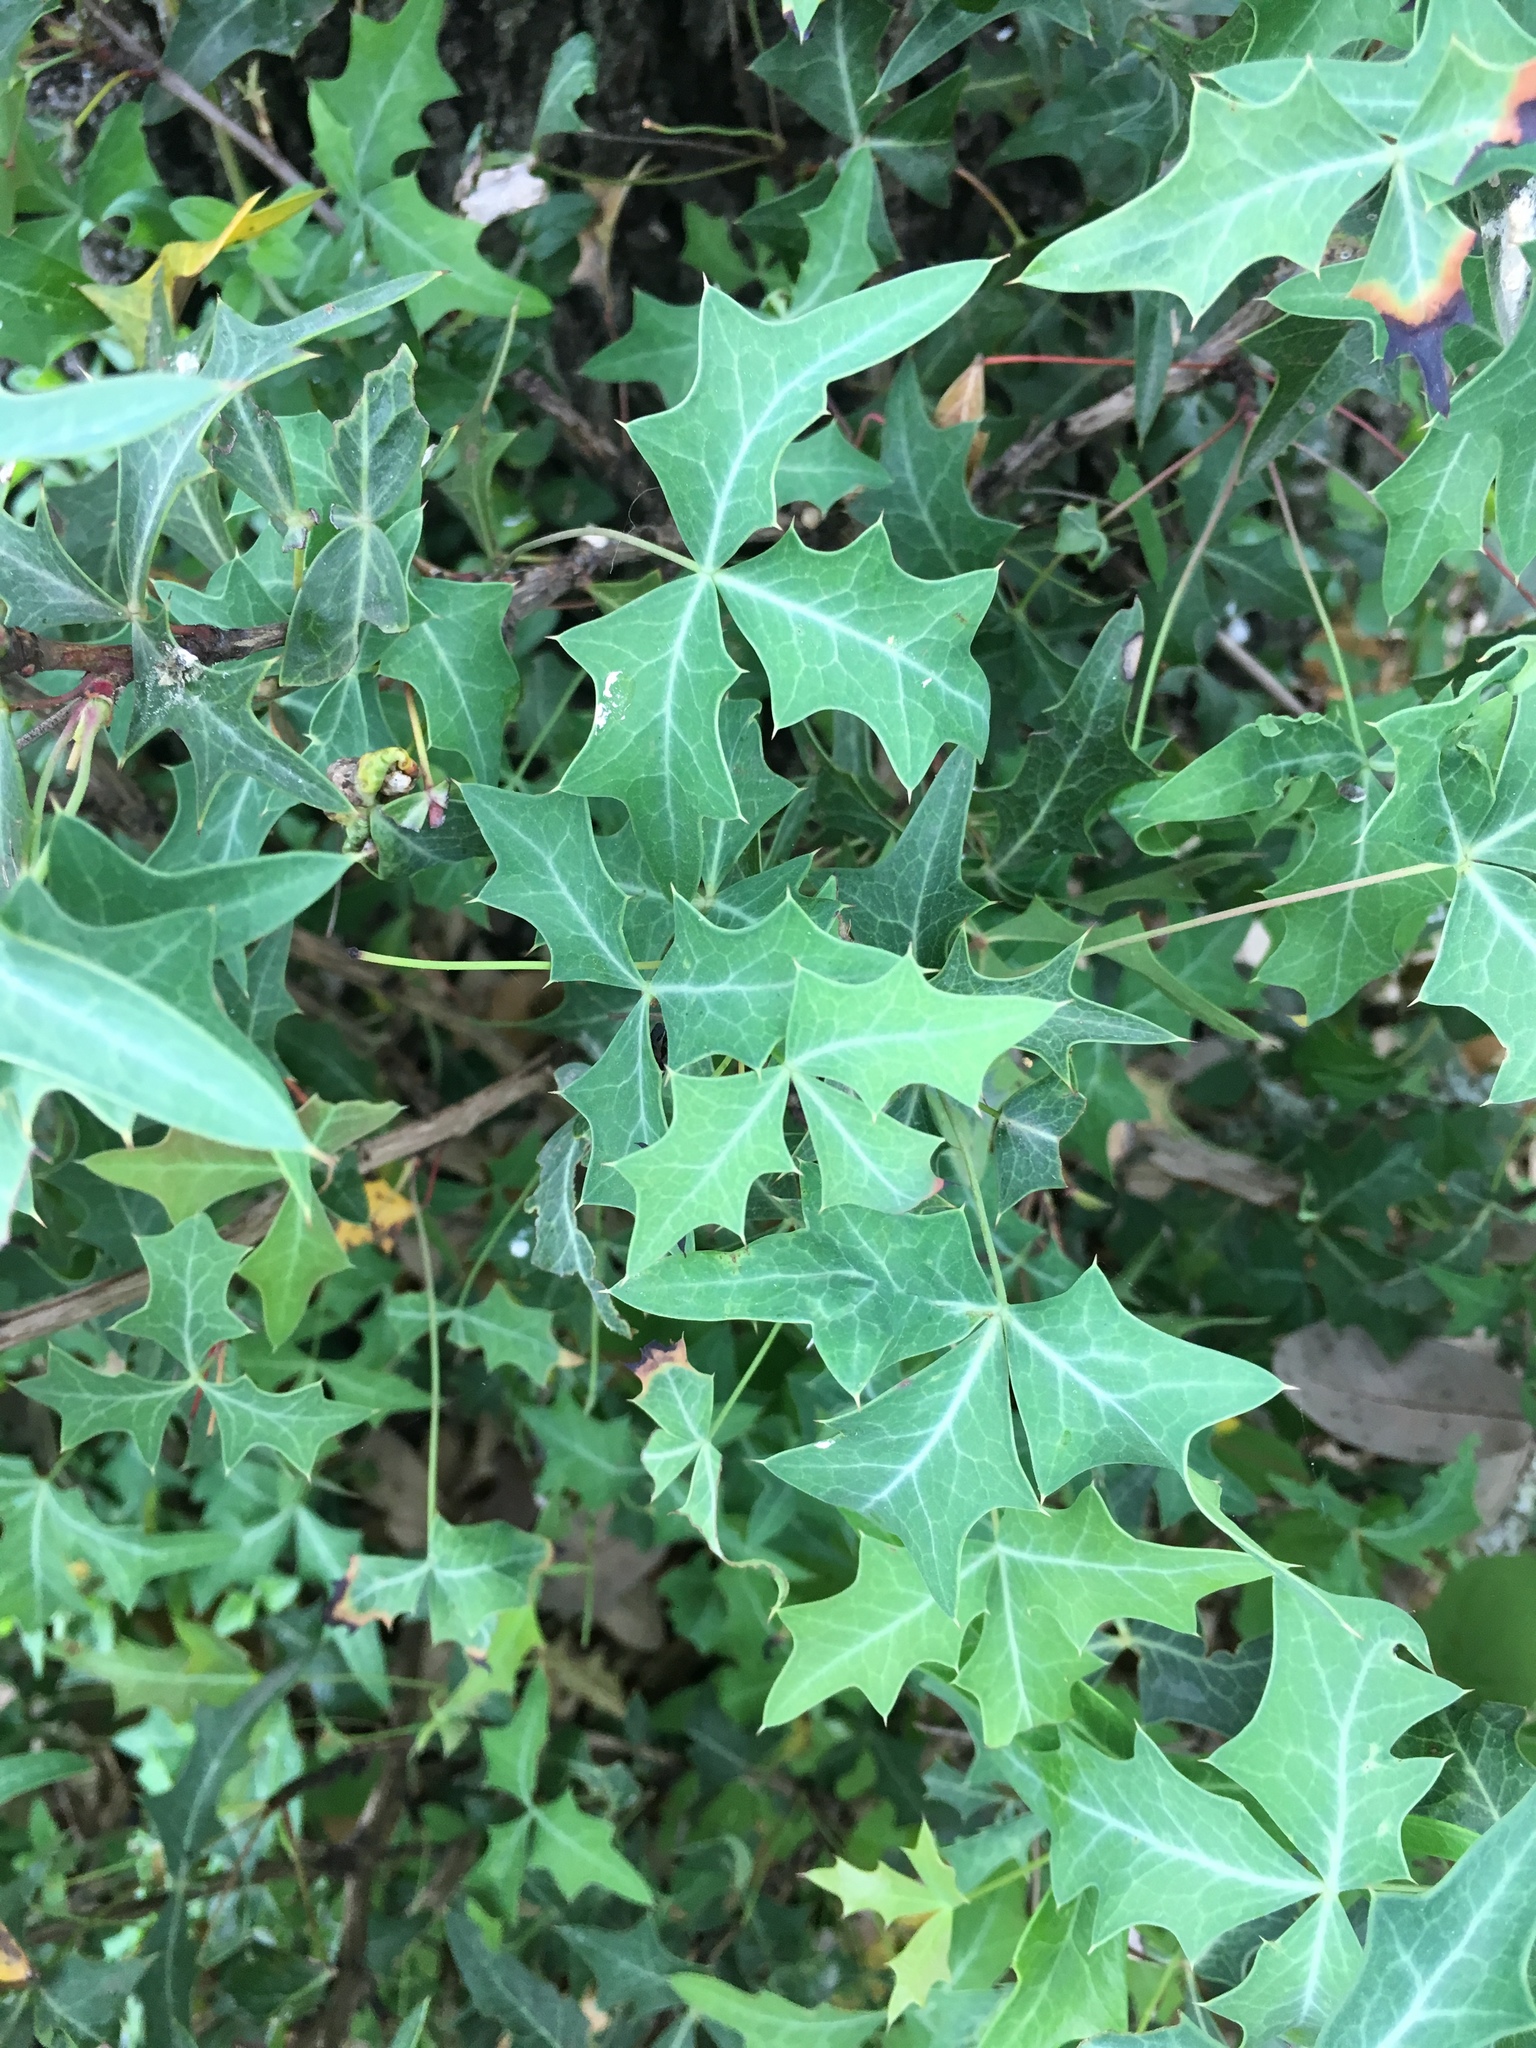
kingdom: Plantae
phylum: Tracheophyta
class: Magnoliopsida
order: Ranunculales
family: Berberidaceae
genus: Alloberberis
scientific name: Alloberberis trifoliolata
